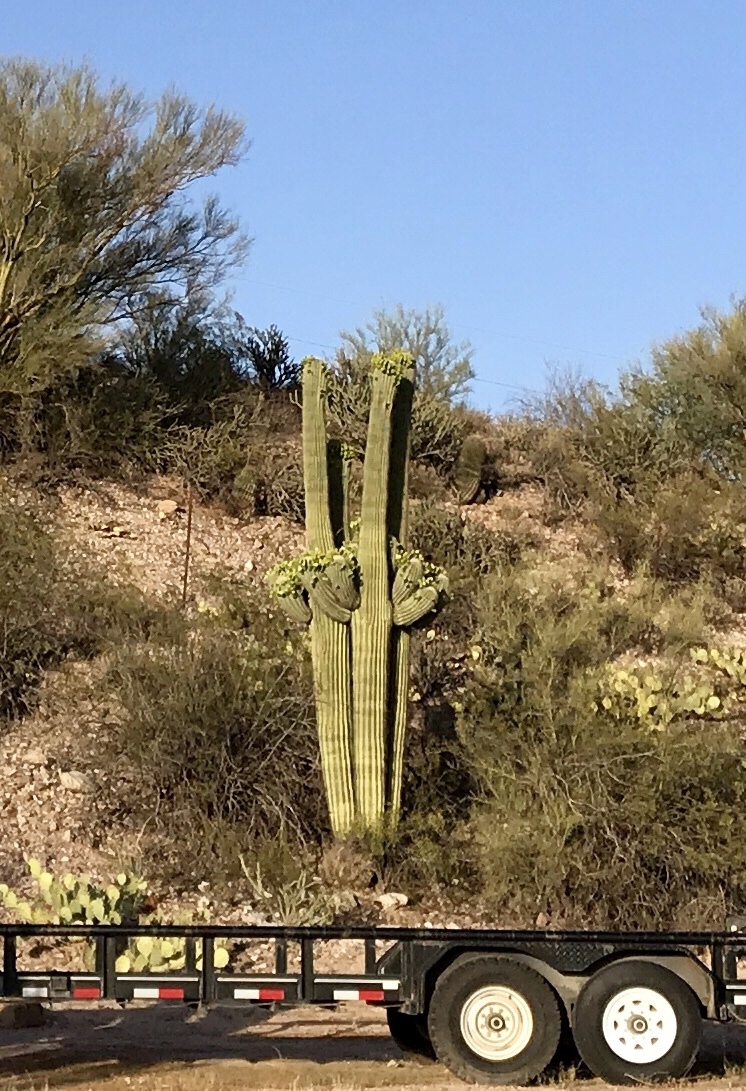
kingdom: Plantae
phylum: Tracheophyta
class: Magnoliopsida
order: Caryophyllales
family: Cactaceae
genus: Carnegiea
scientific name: Carnegiea gigantea
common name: Saguaro
